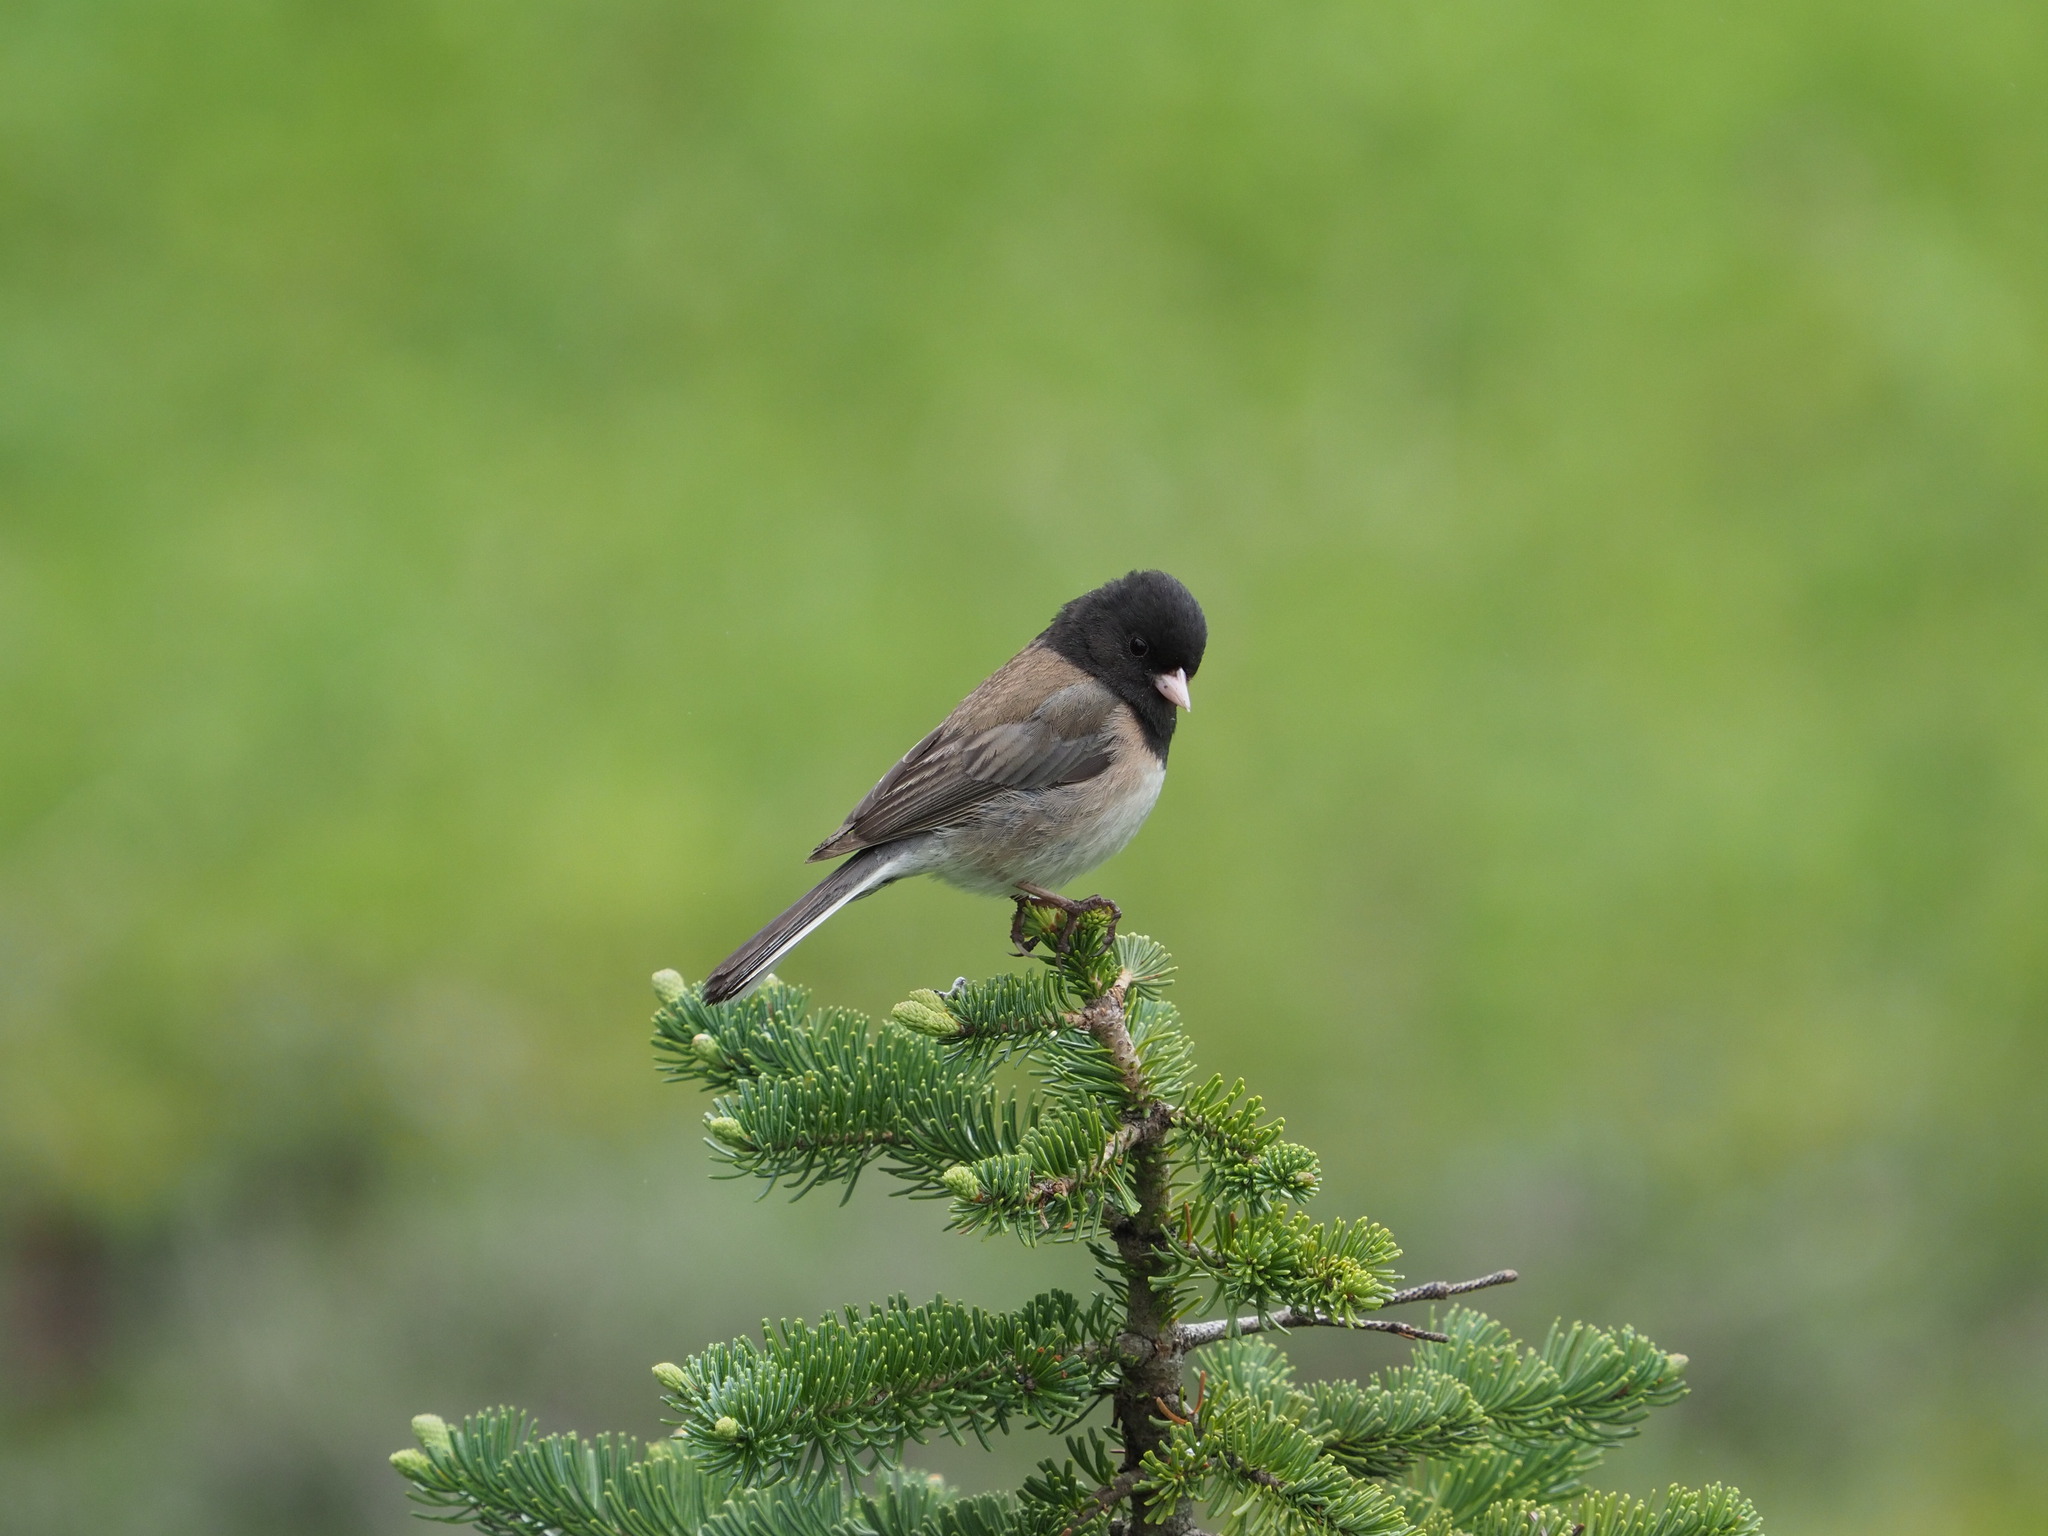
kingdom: Animalia
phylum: Chordata
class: Aves
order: Passeriformes
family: Passerellidae
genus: Junco
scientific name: Junco hyemalis
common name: Dark-eyed junco
